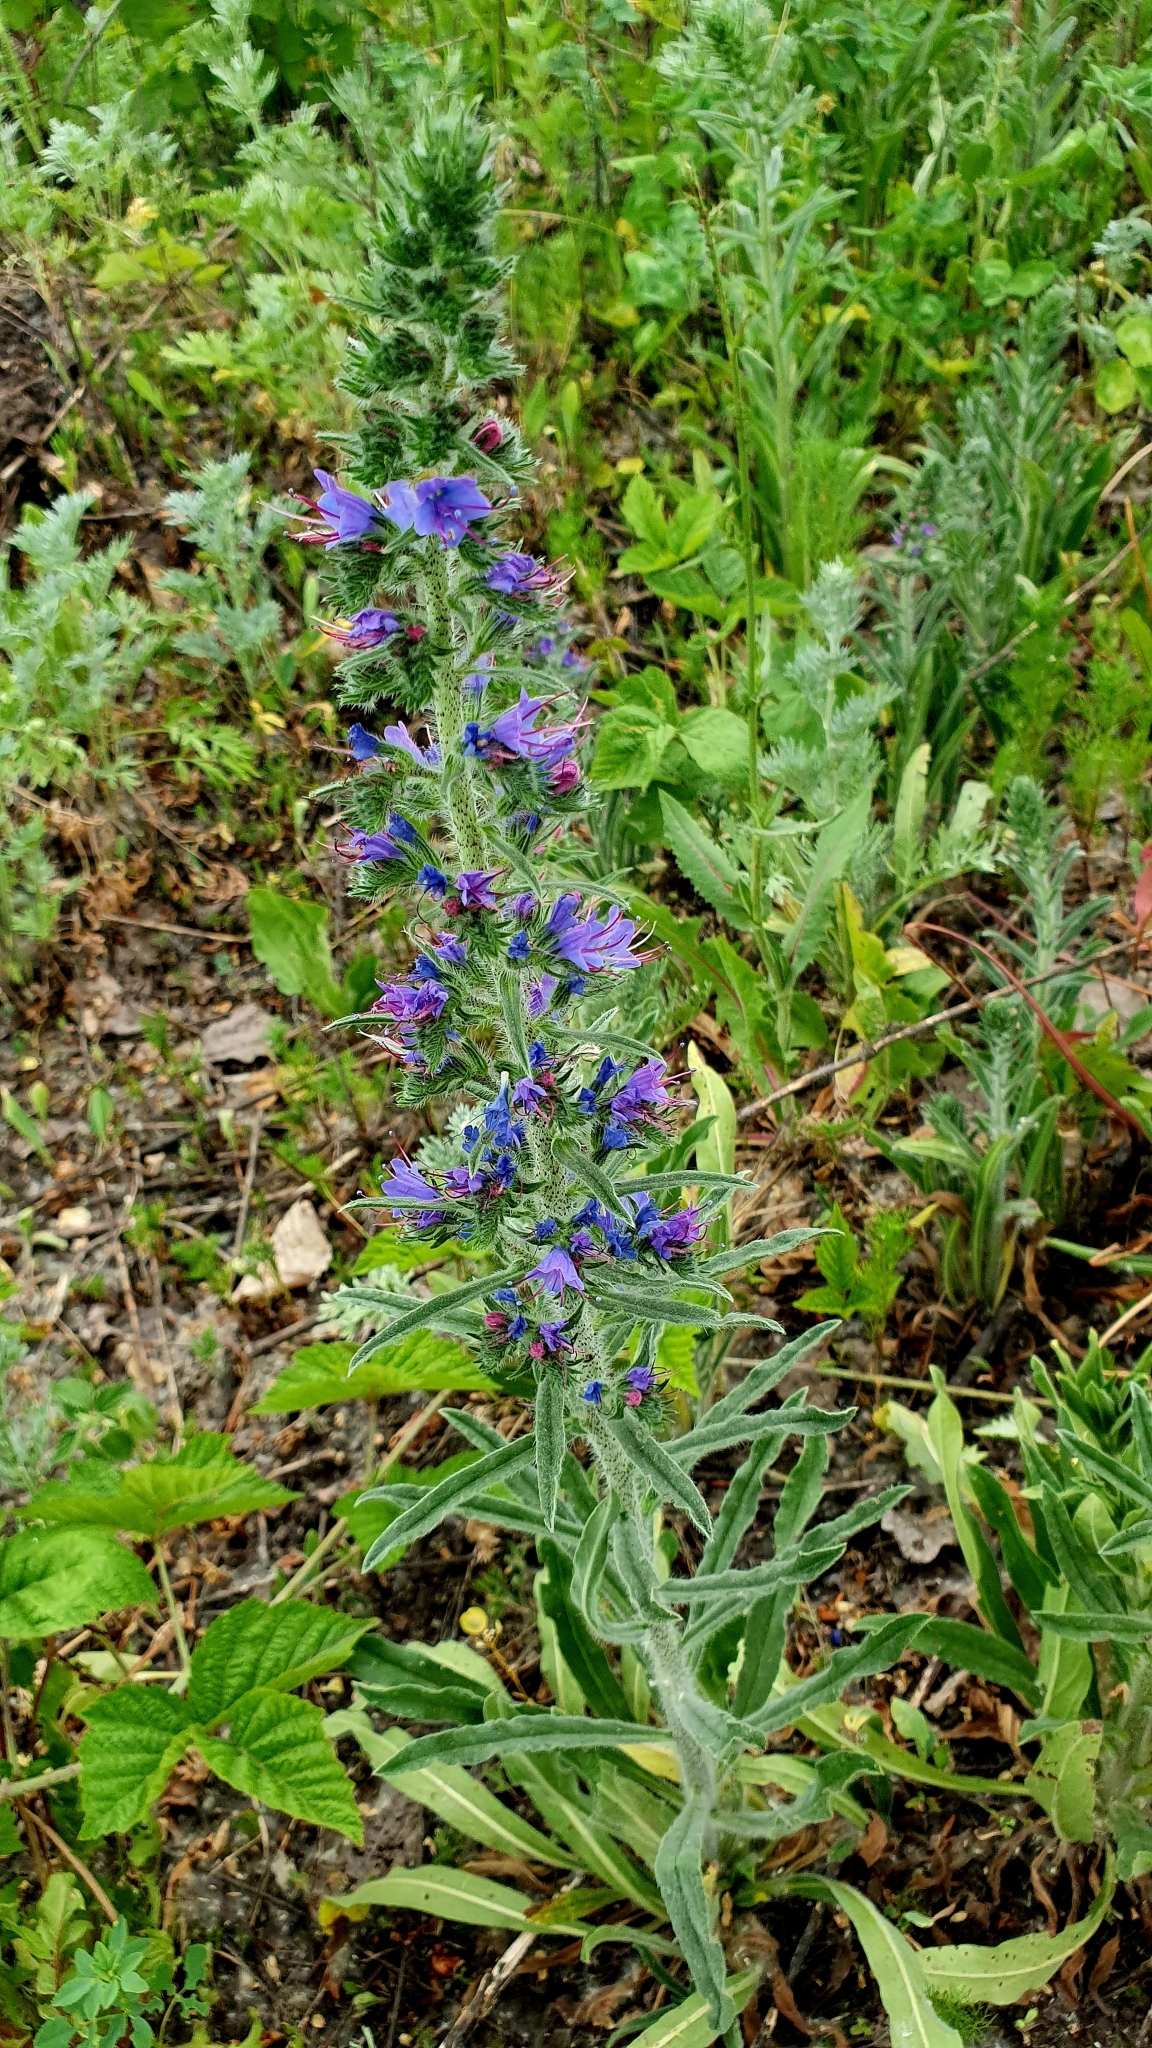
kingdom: Plantae
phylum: Tracheophyta
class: Magnoliopsida
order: Boraginales
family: Boraginaceae
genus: Echium
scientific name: Echium vulgare
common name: Common viper's bugloss
